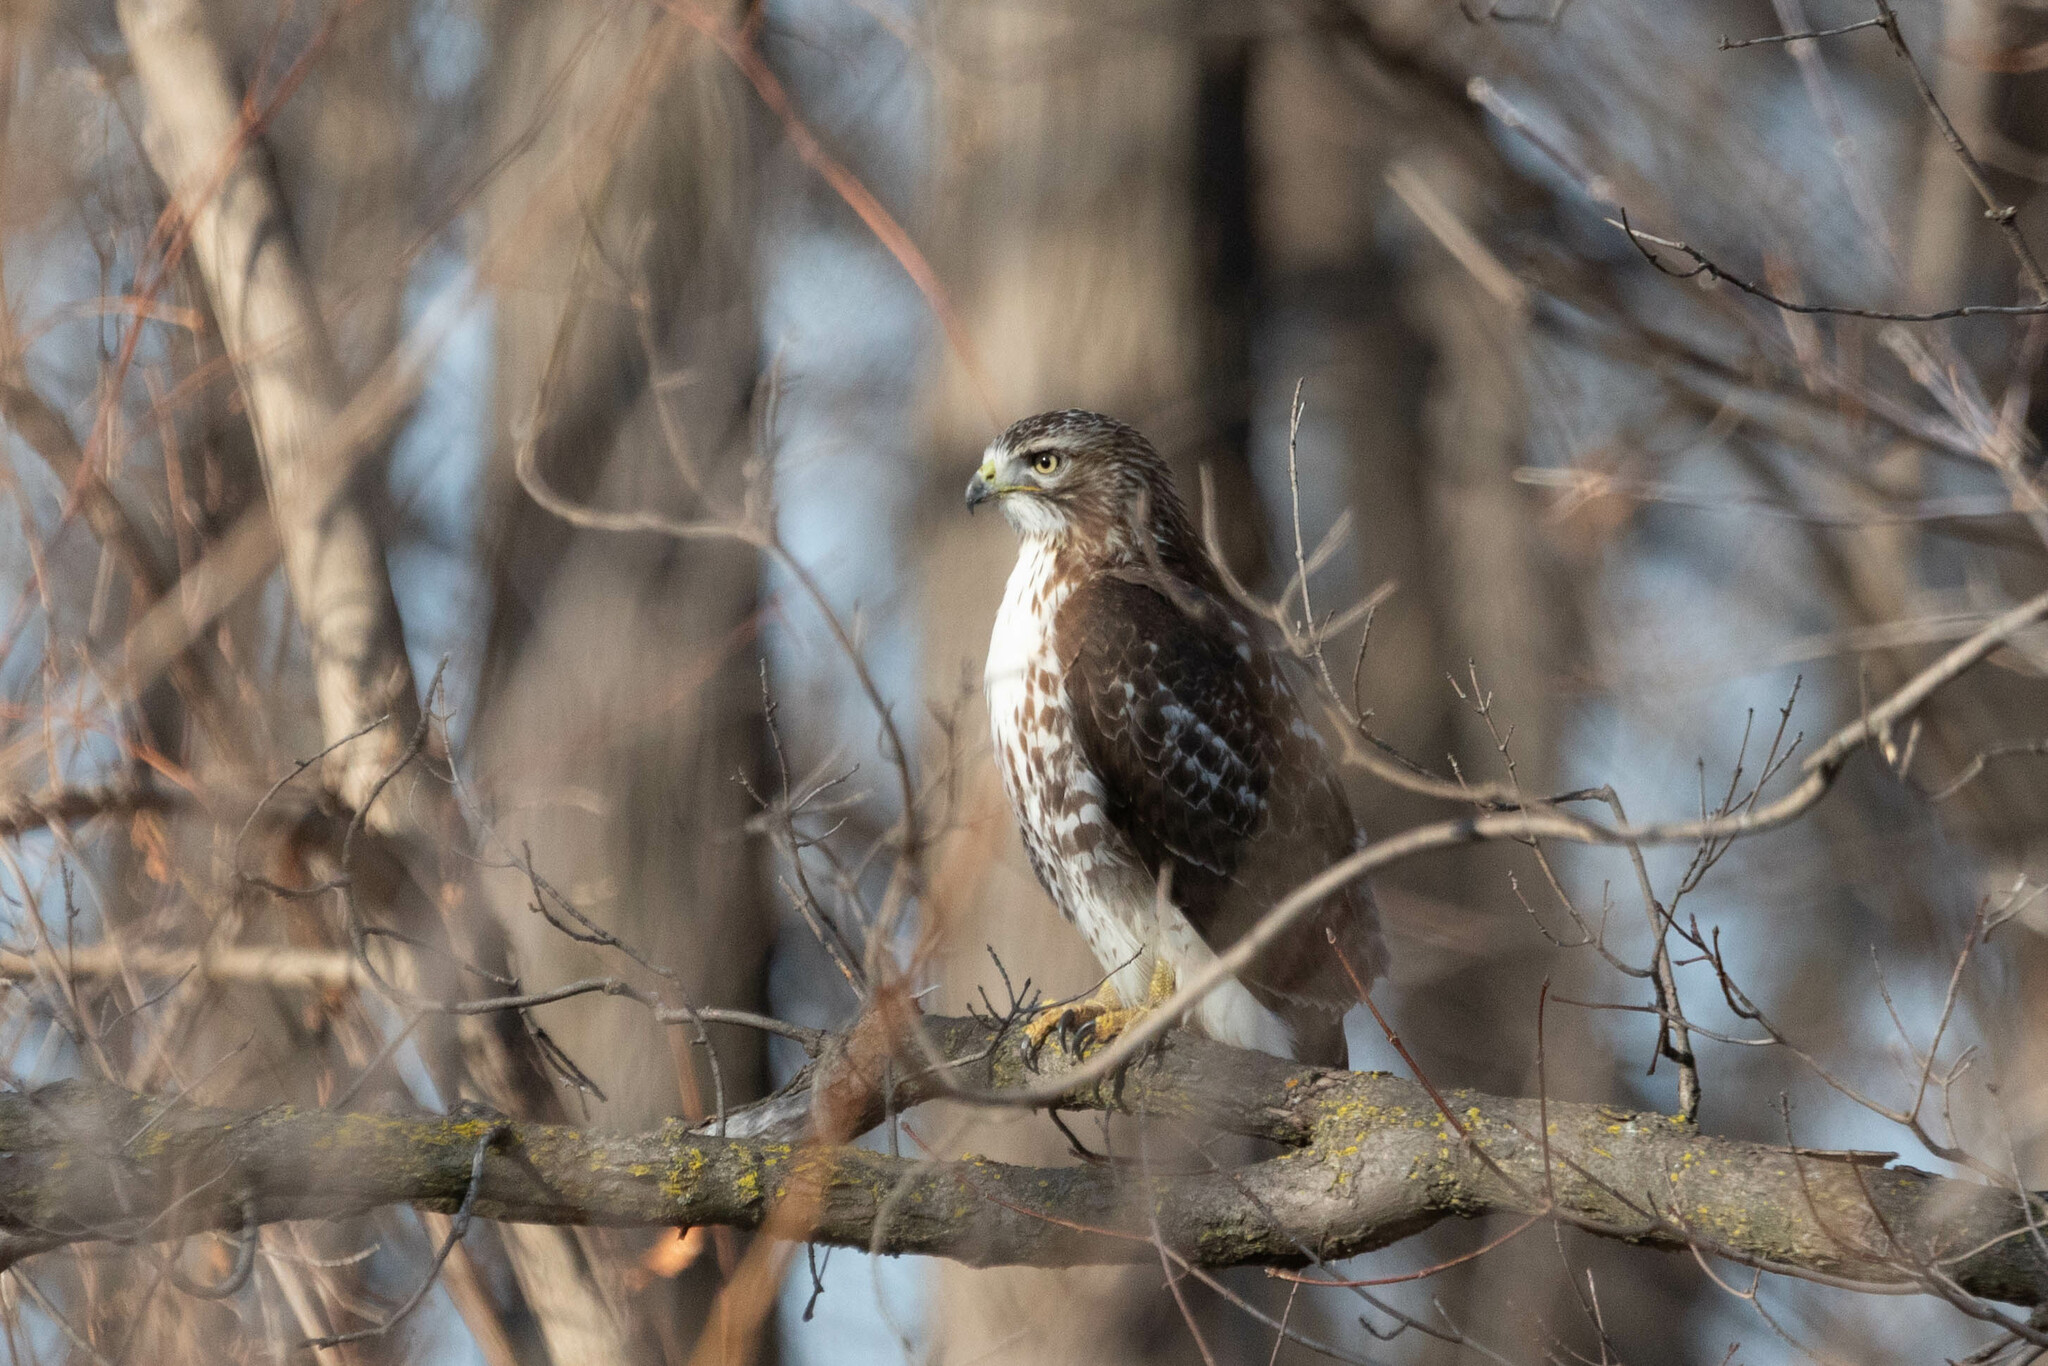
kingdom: Animalia
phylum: Chordata
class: Aves
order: Accipitriformes
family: Accipitridae
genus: Buteo
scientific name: Buteo jamaicensis
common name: Red-tailed hawk
